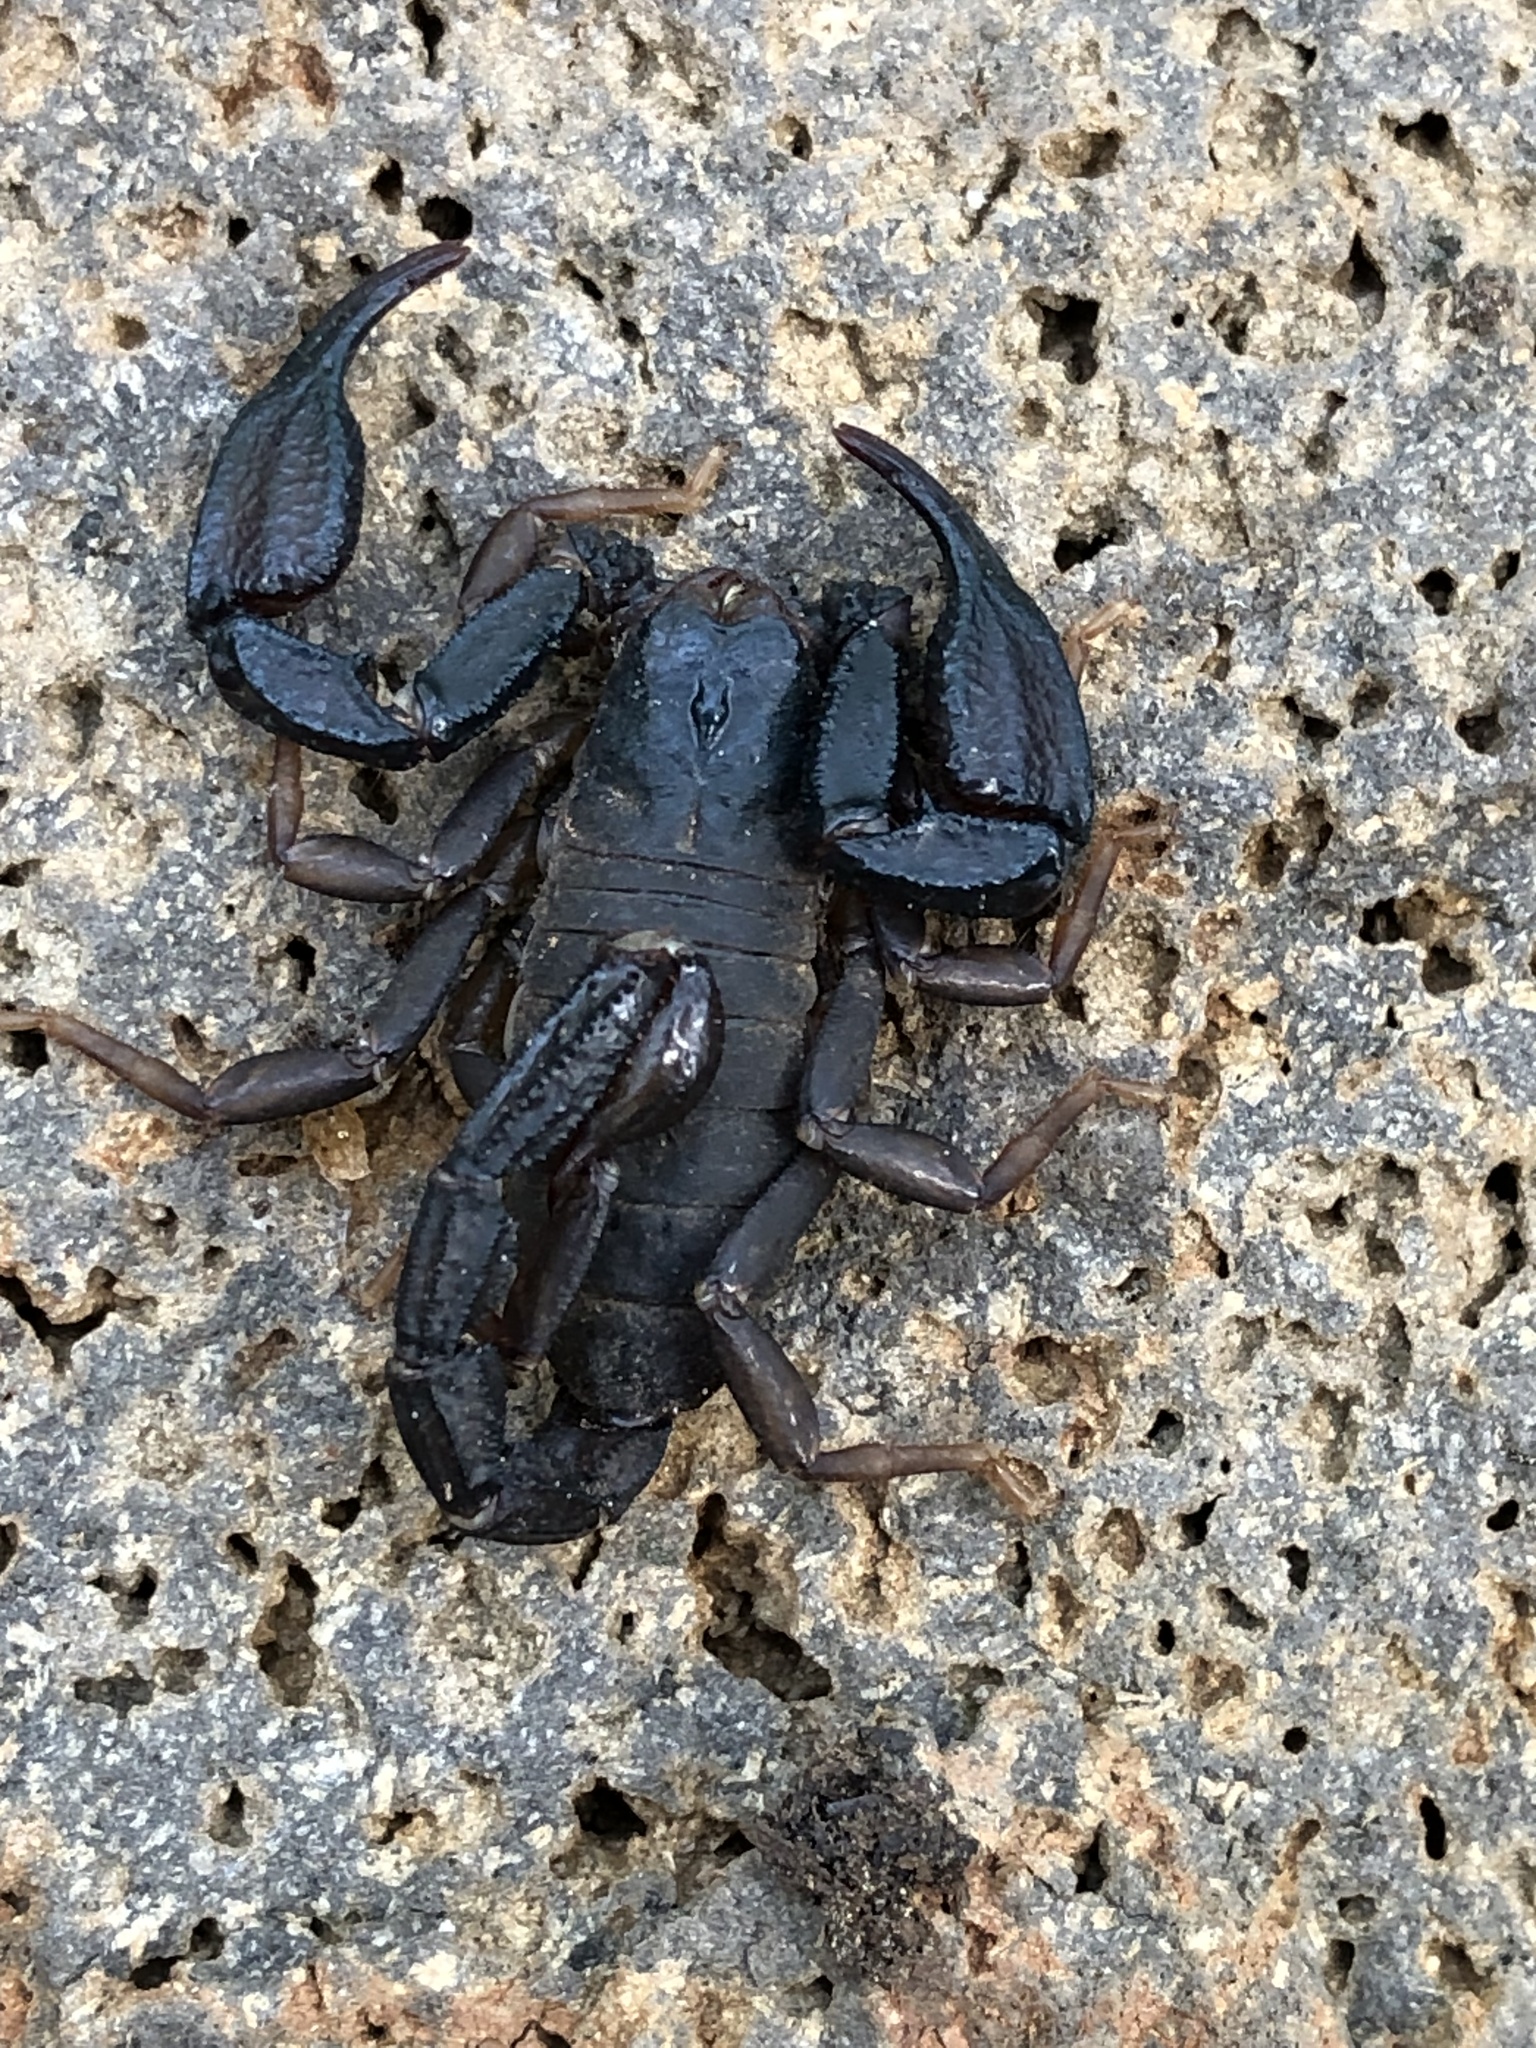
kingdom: Animalia
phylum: Arthropoda
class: Arachnida
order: Scorpiones
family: Chactidae
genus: Uroctonus
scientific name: Uroctonus mordax
